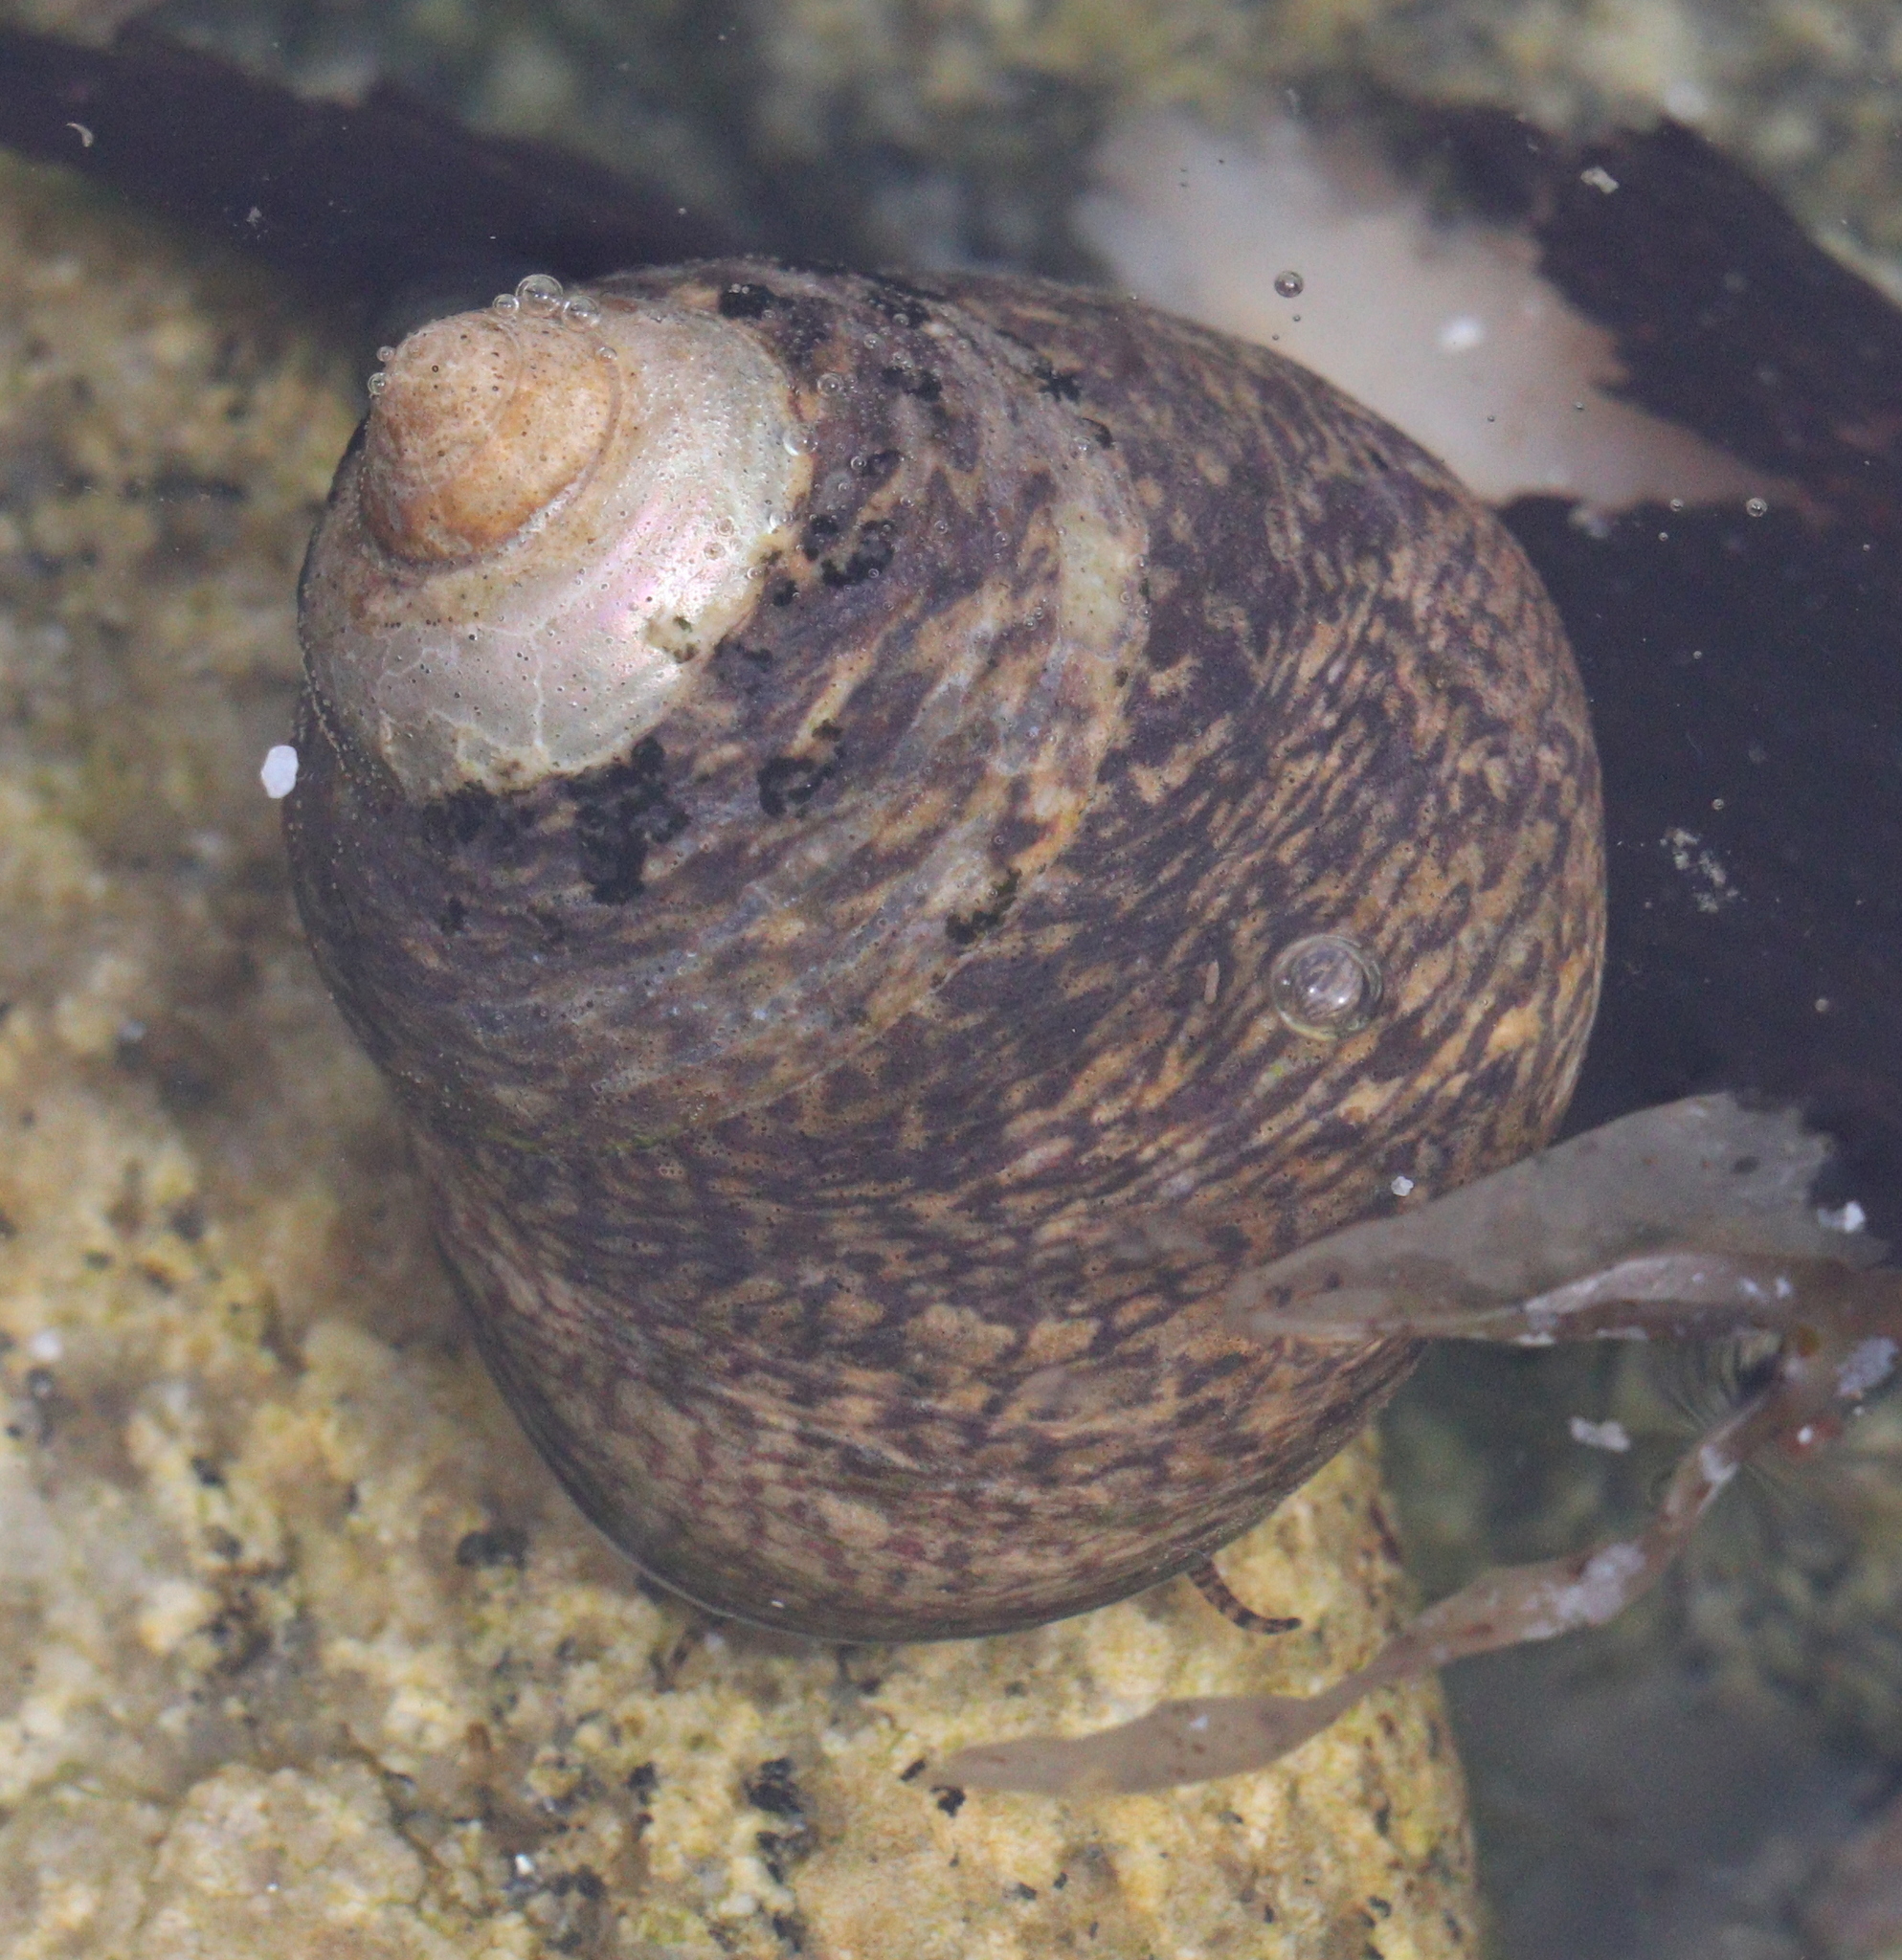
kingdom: Animalia
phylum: Mollusca
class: Gastropoda
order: Trochida
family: Trochidae
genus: Phorcus
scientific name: Phorcus lineatus
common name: Toothed top shell
